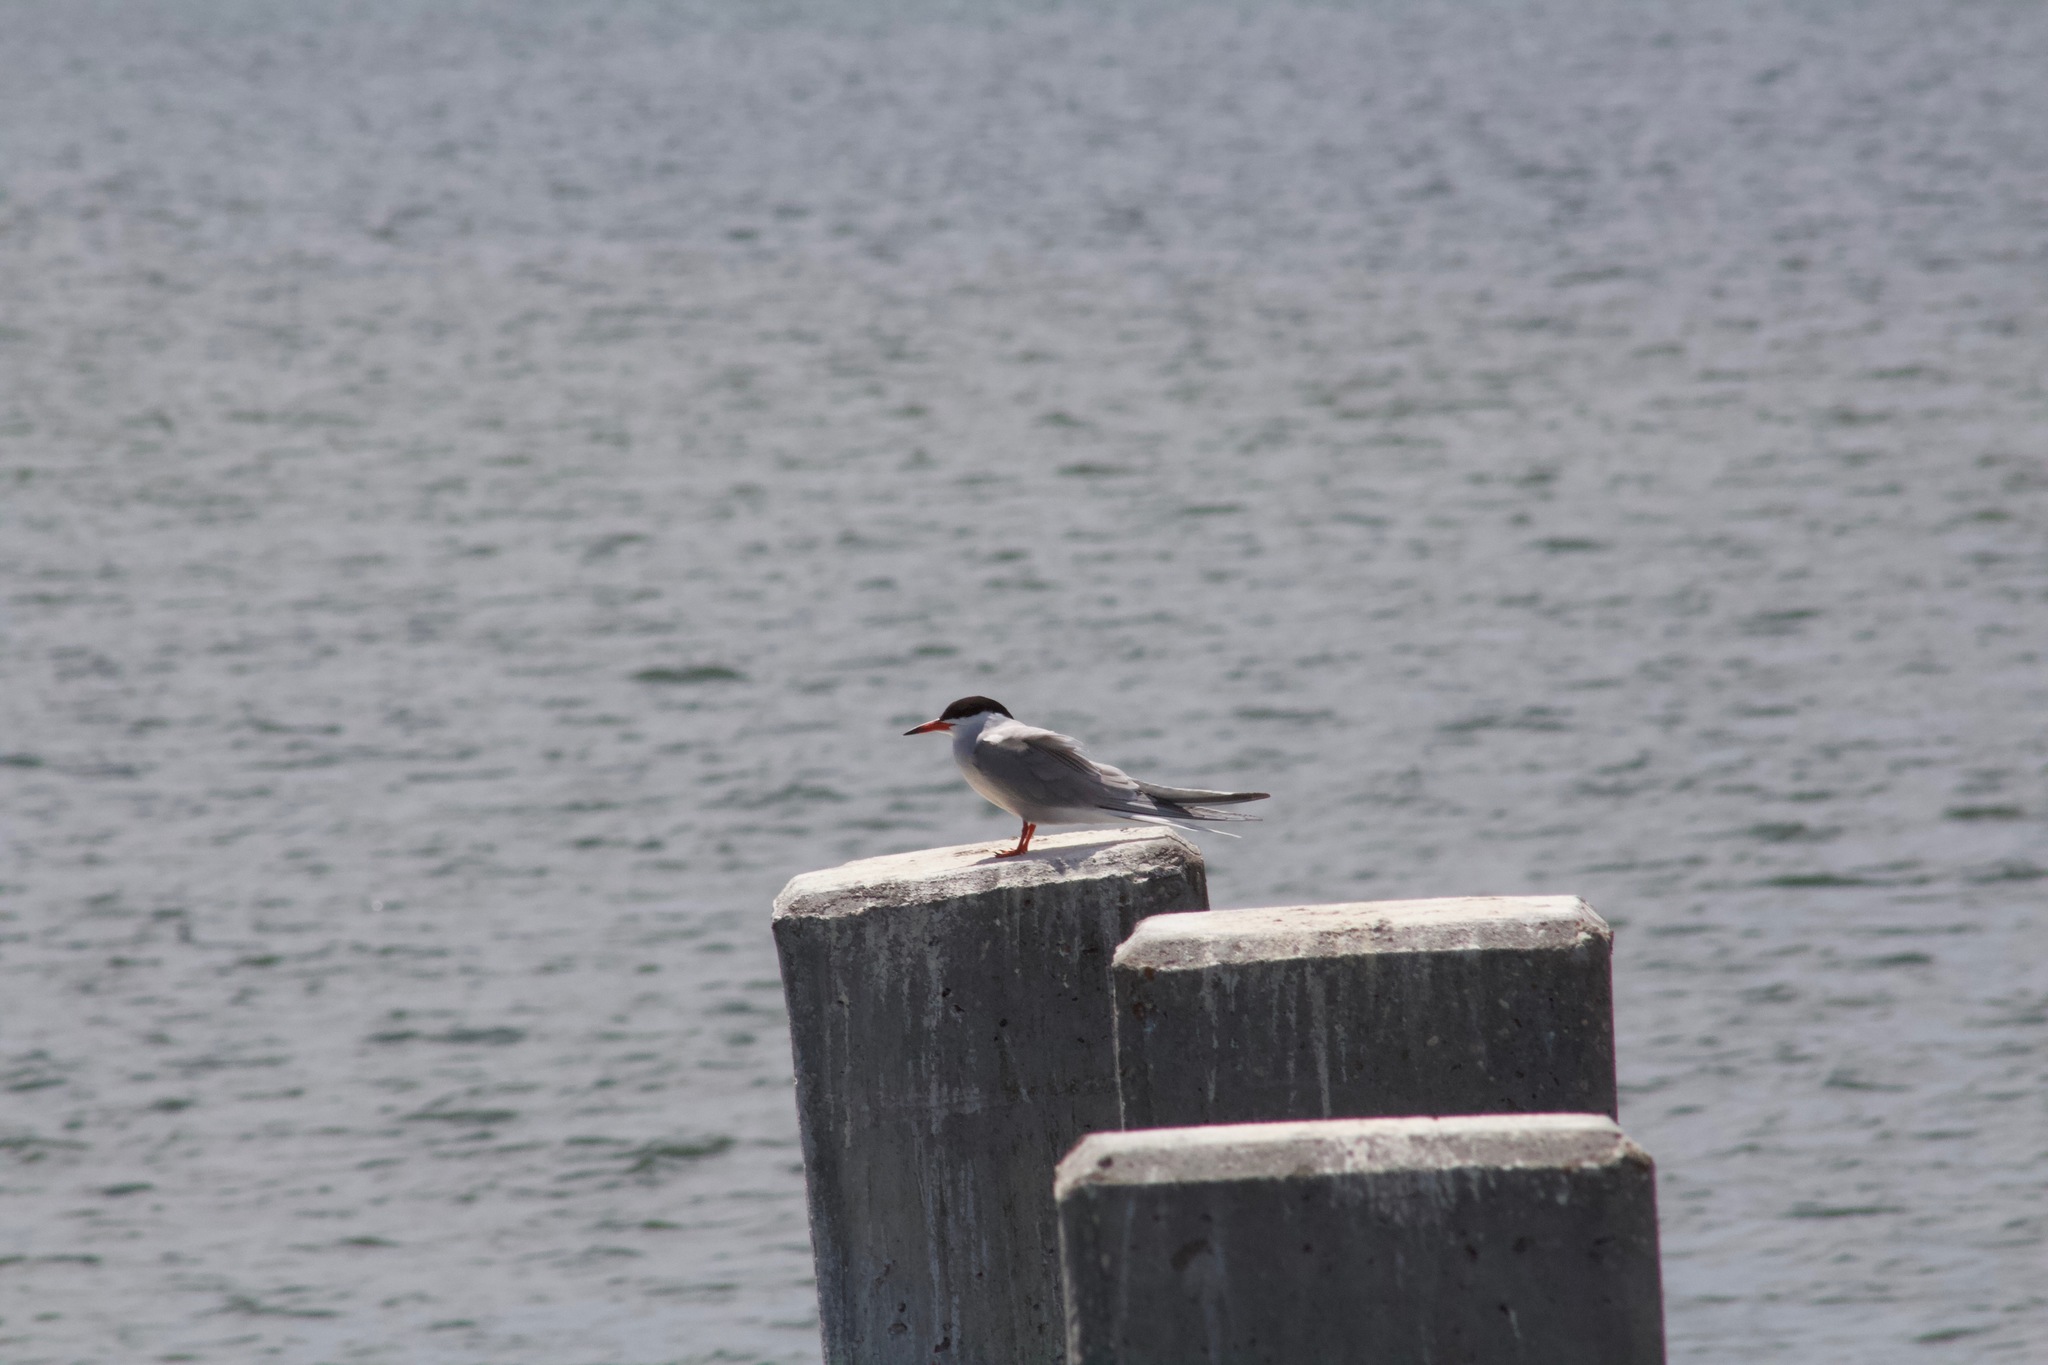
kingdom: Animalia
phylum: Chordata
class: Aves
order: Charadriiformes
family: Laridae
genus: Sterna
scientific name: Sterna forsteri
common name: Forster's tern
